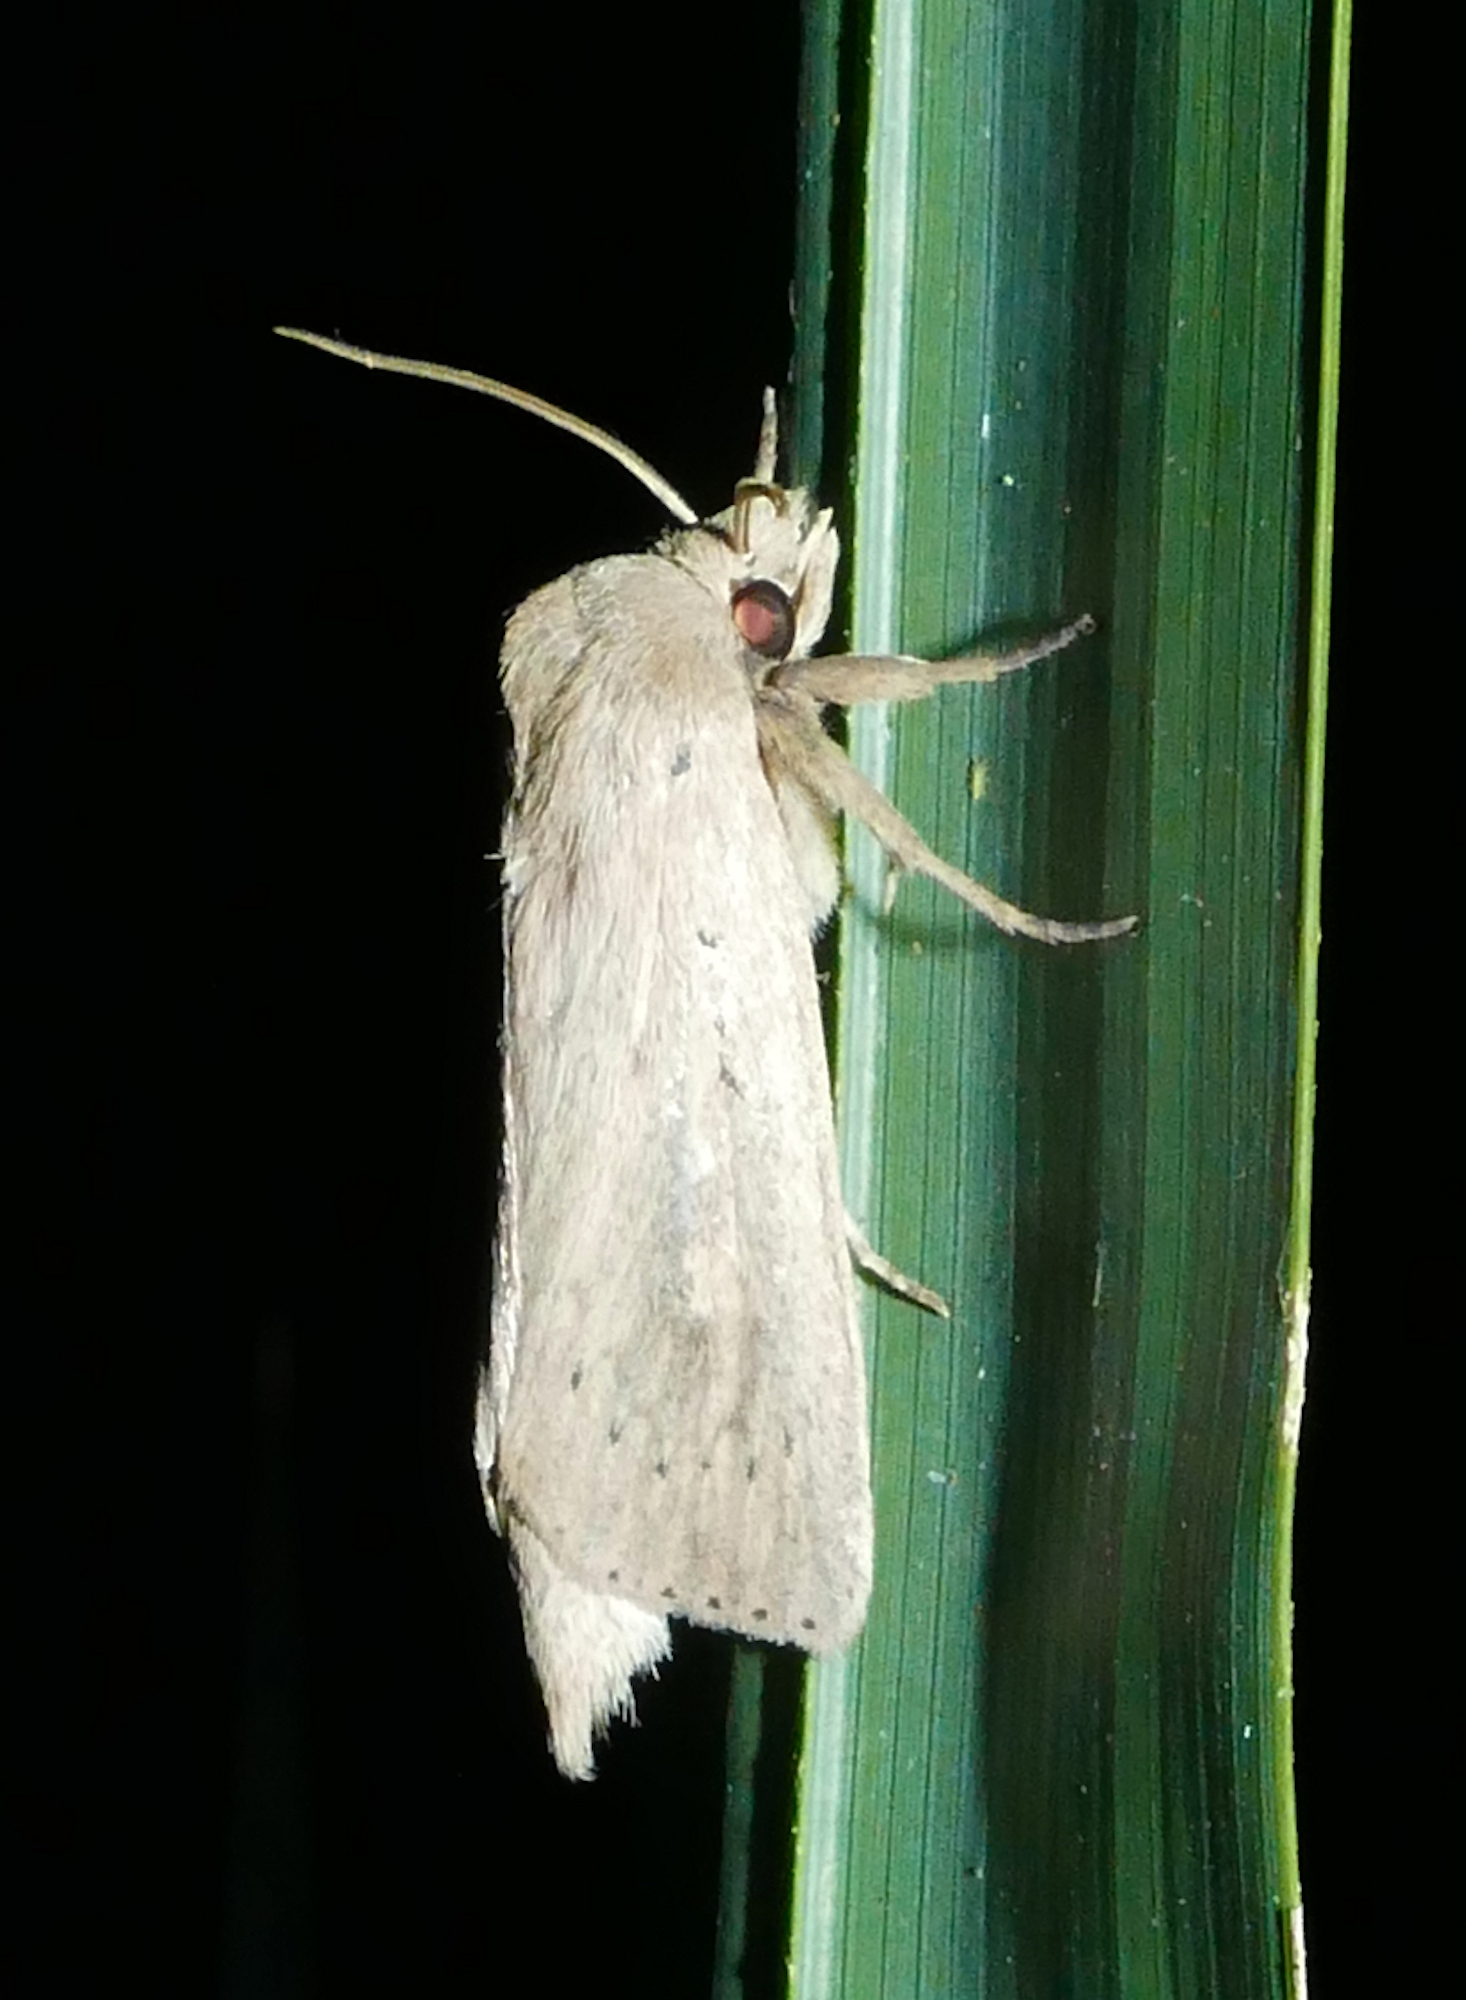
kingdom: Animalia
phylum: Arthropoda
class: Insecta
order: Lepidoptera
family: Noctuidae
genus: Globia
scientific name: Globia oblonga
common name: Oblong sedge borer moth
